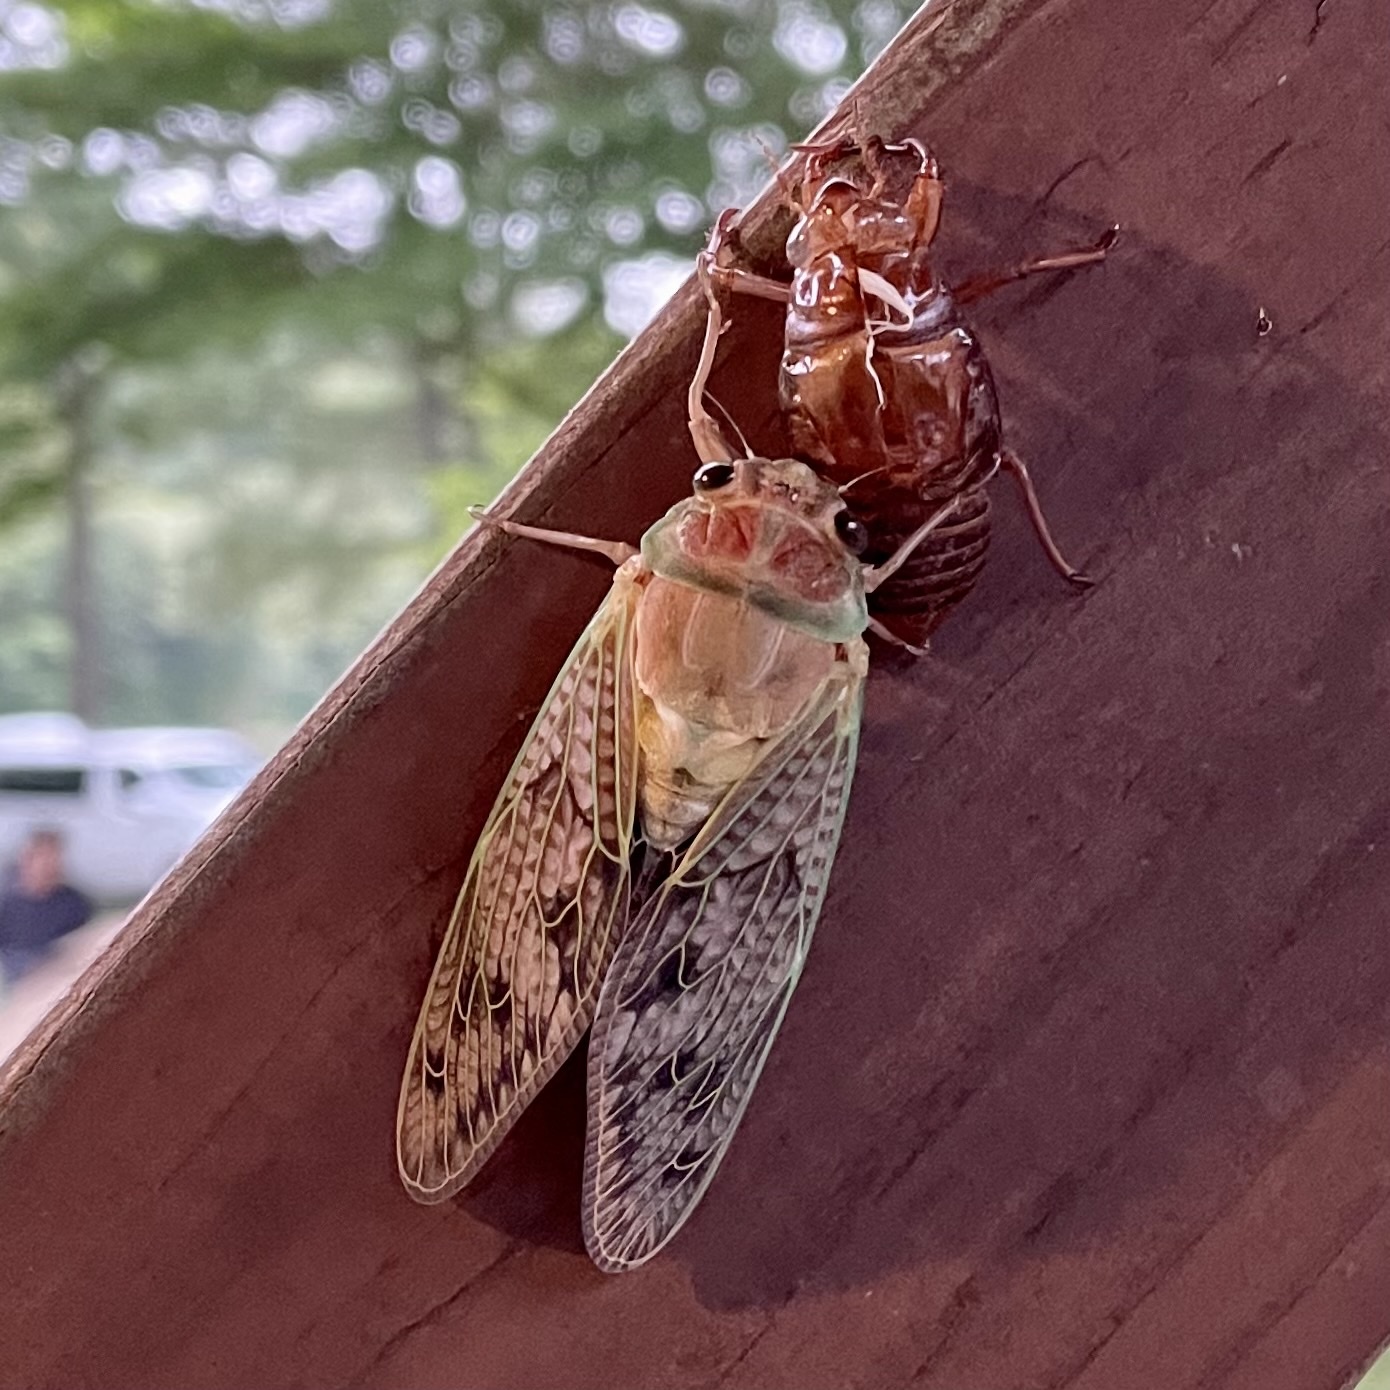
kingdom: Animalia
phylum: Arthropoda
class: Insecta
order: Hemiptera
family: Cicadidae
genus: Graptopsaltria
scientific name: Graptopsaltria nigrofuscata
